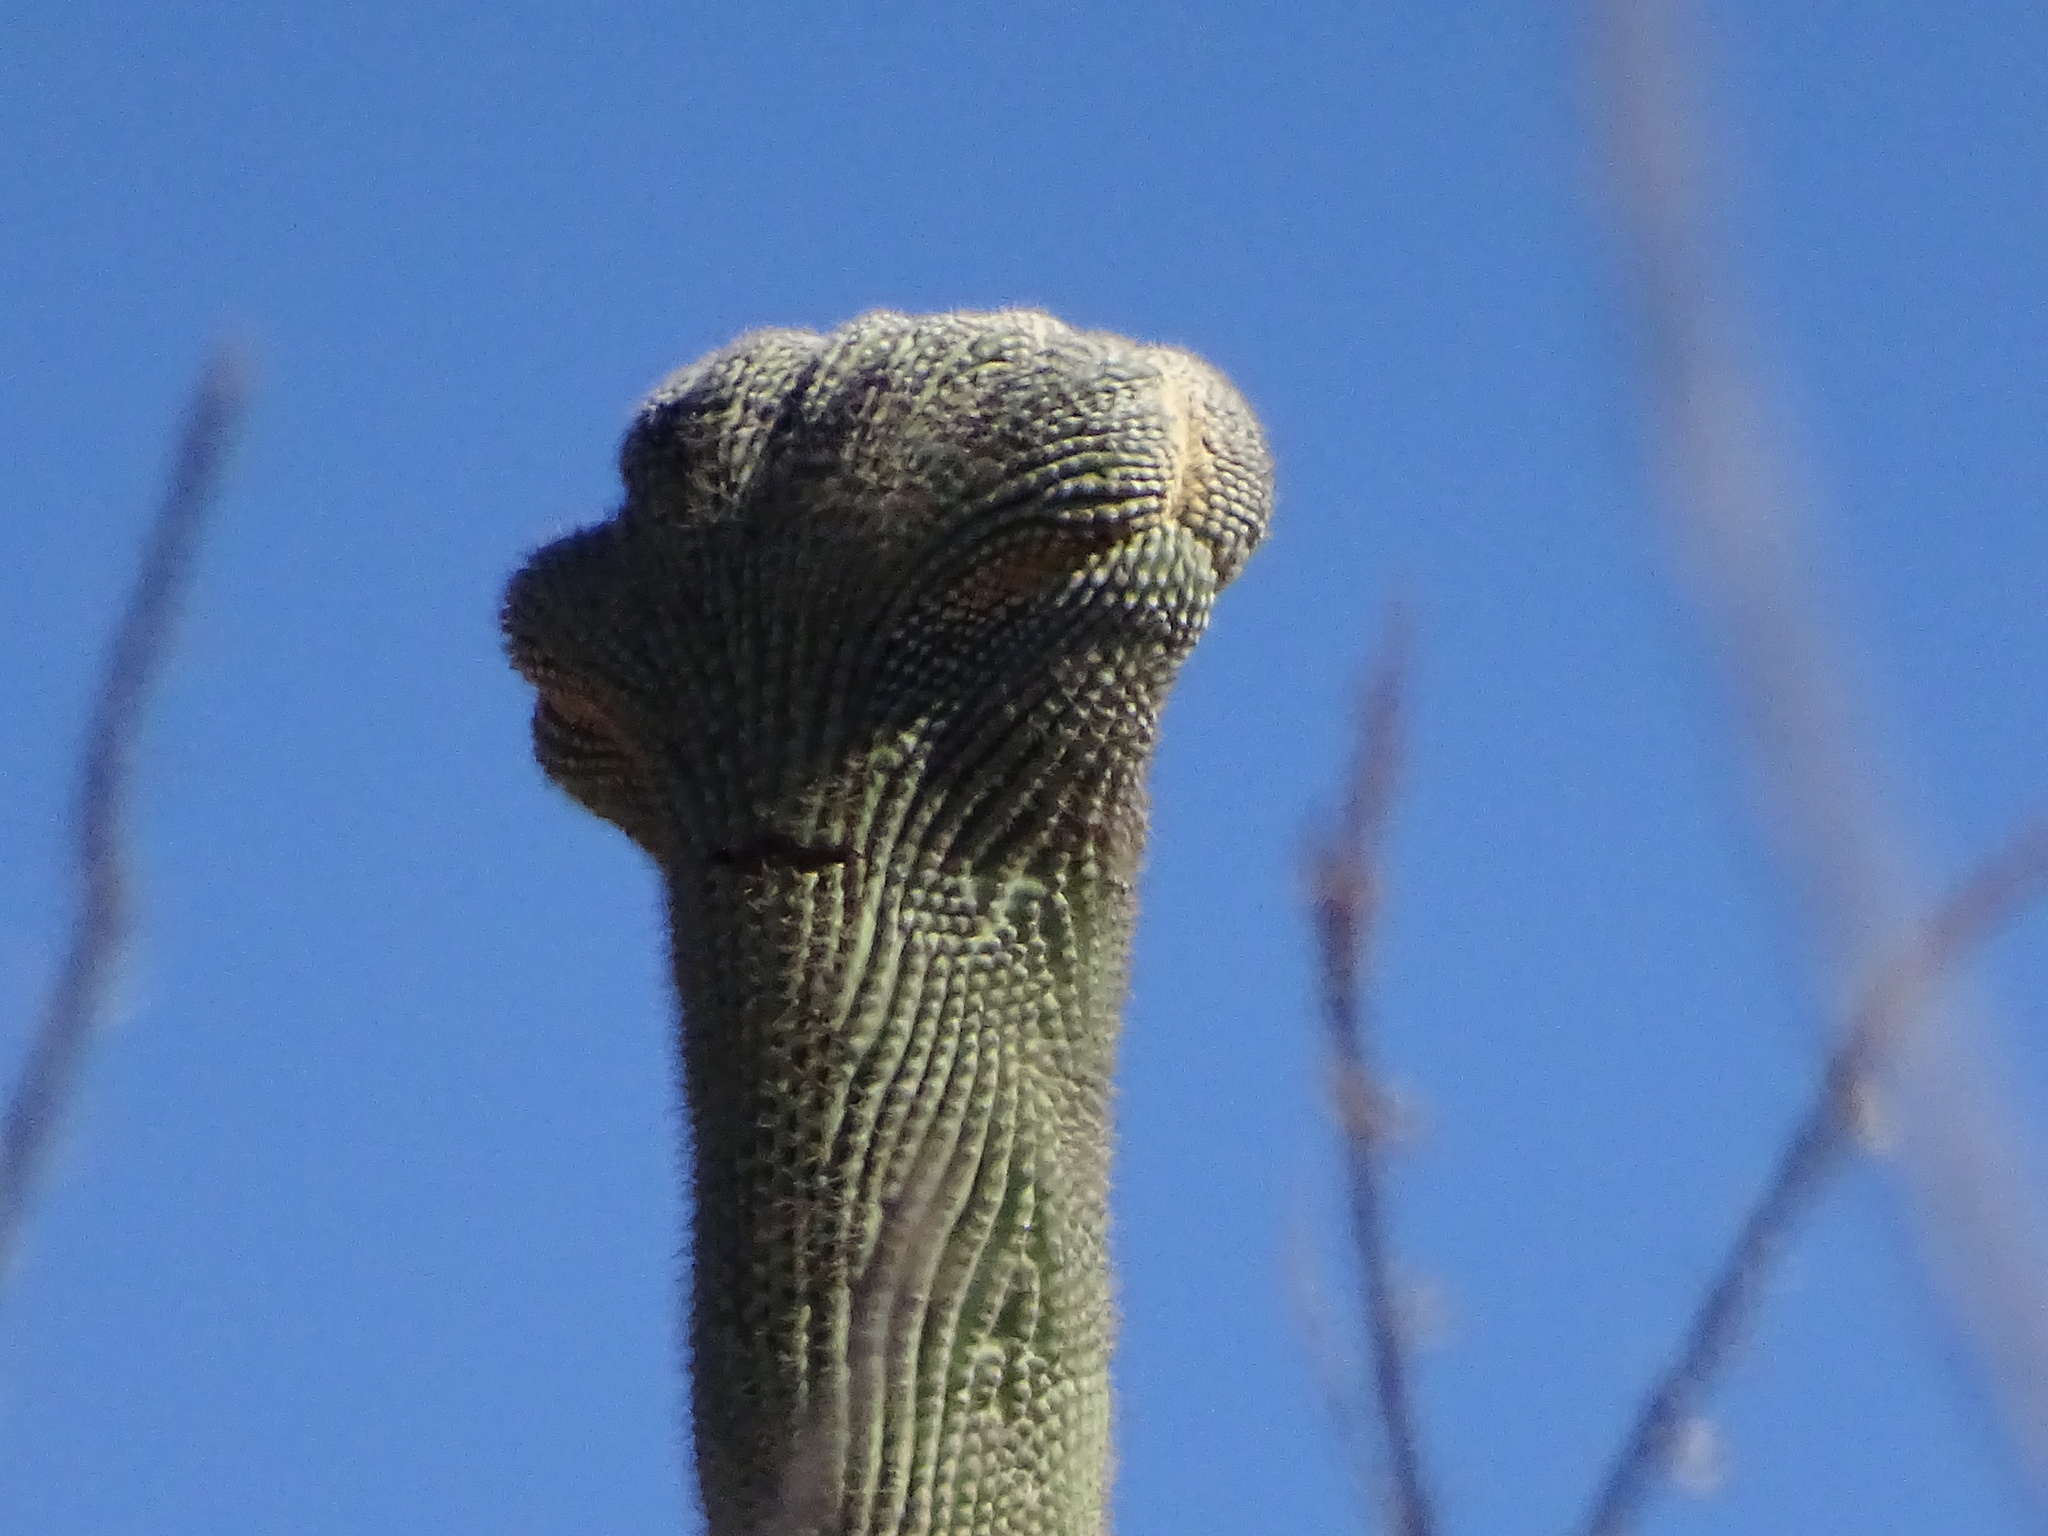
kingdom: Plantae
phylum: Tracheophyta
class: Magnoliopsida
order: Caryophyllales
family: Cactaceae
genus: Carnegiea
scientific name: Carnegiea gigantea
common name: Saguaro
